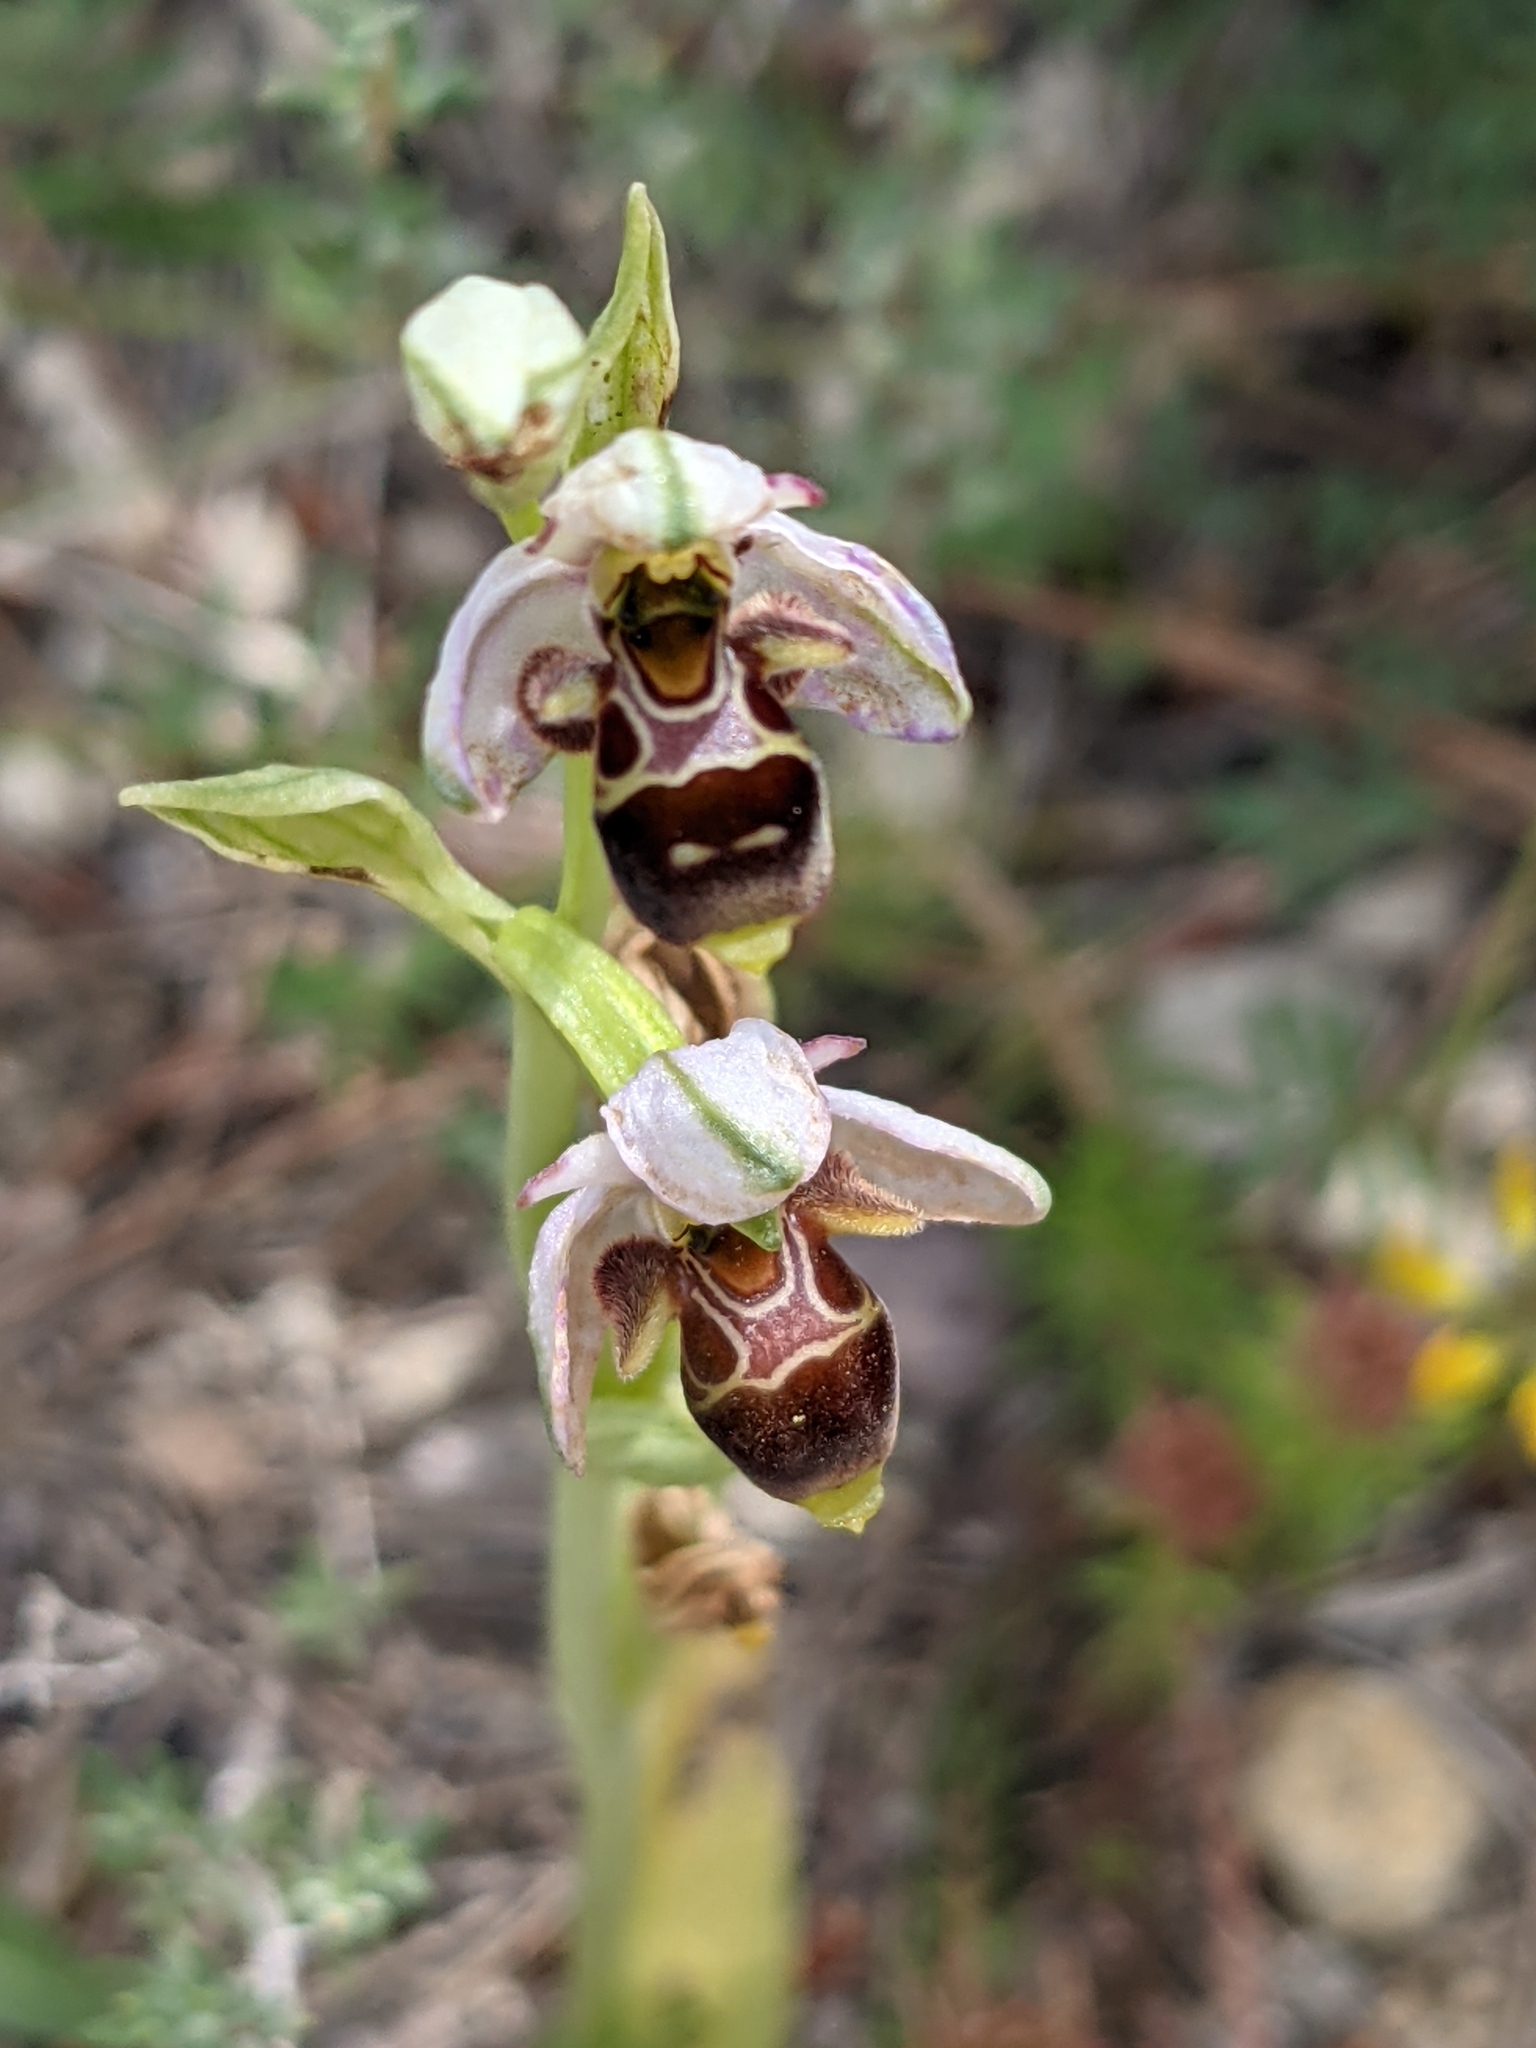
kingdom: Plantae
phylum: Tracheophyta
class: Liliopsida
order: Asparagales
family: Orchidaceae
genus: Ophrys
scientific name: Ophrys scolopax
